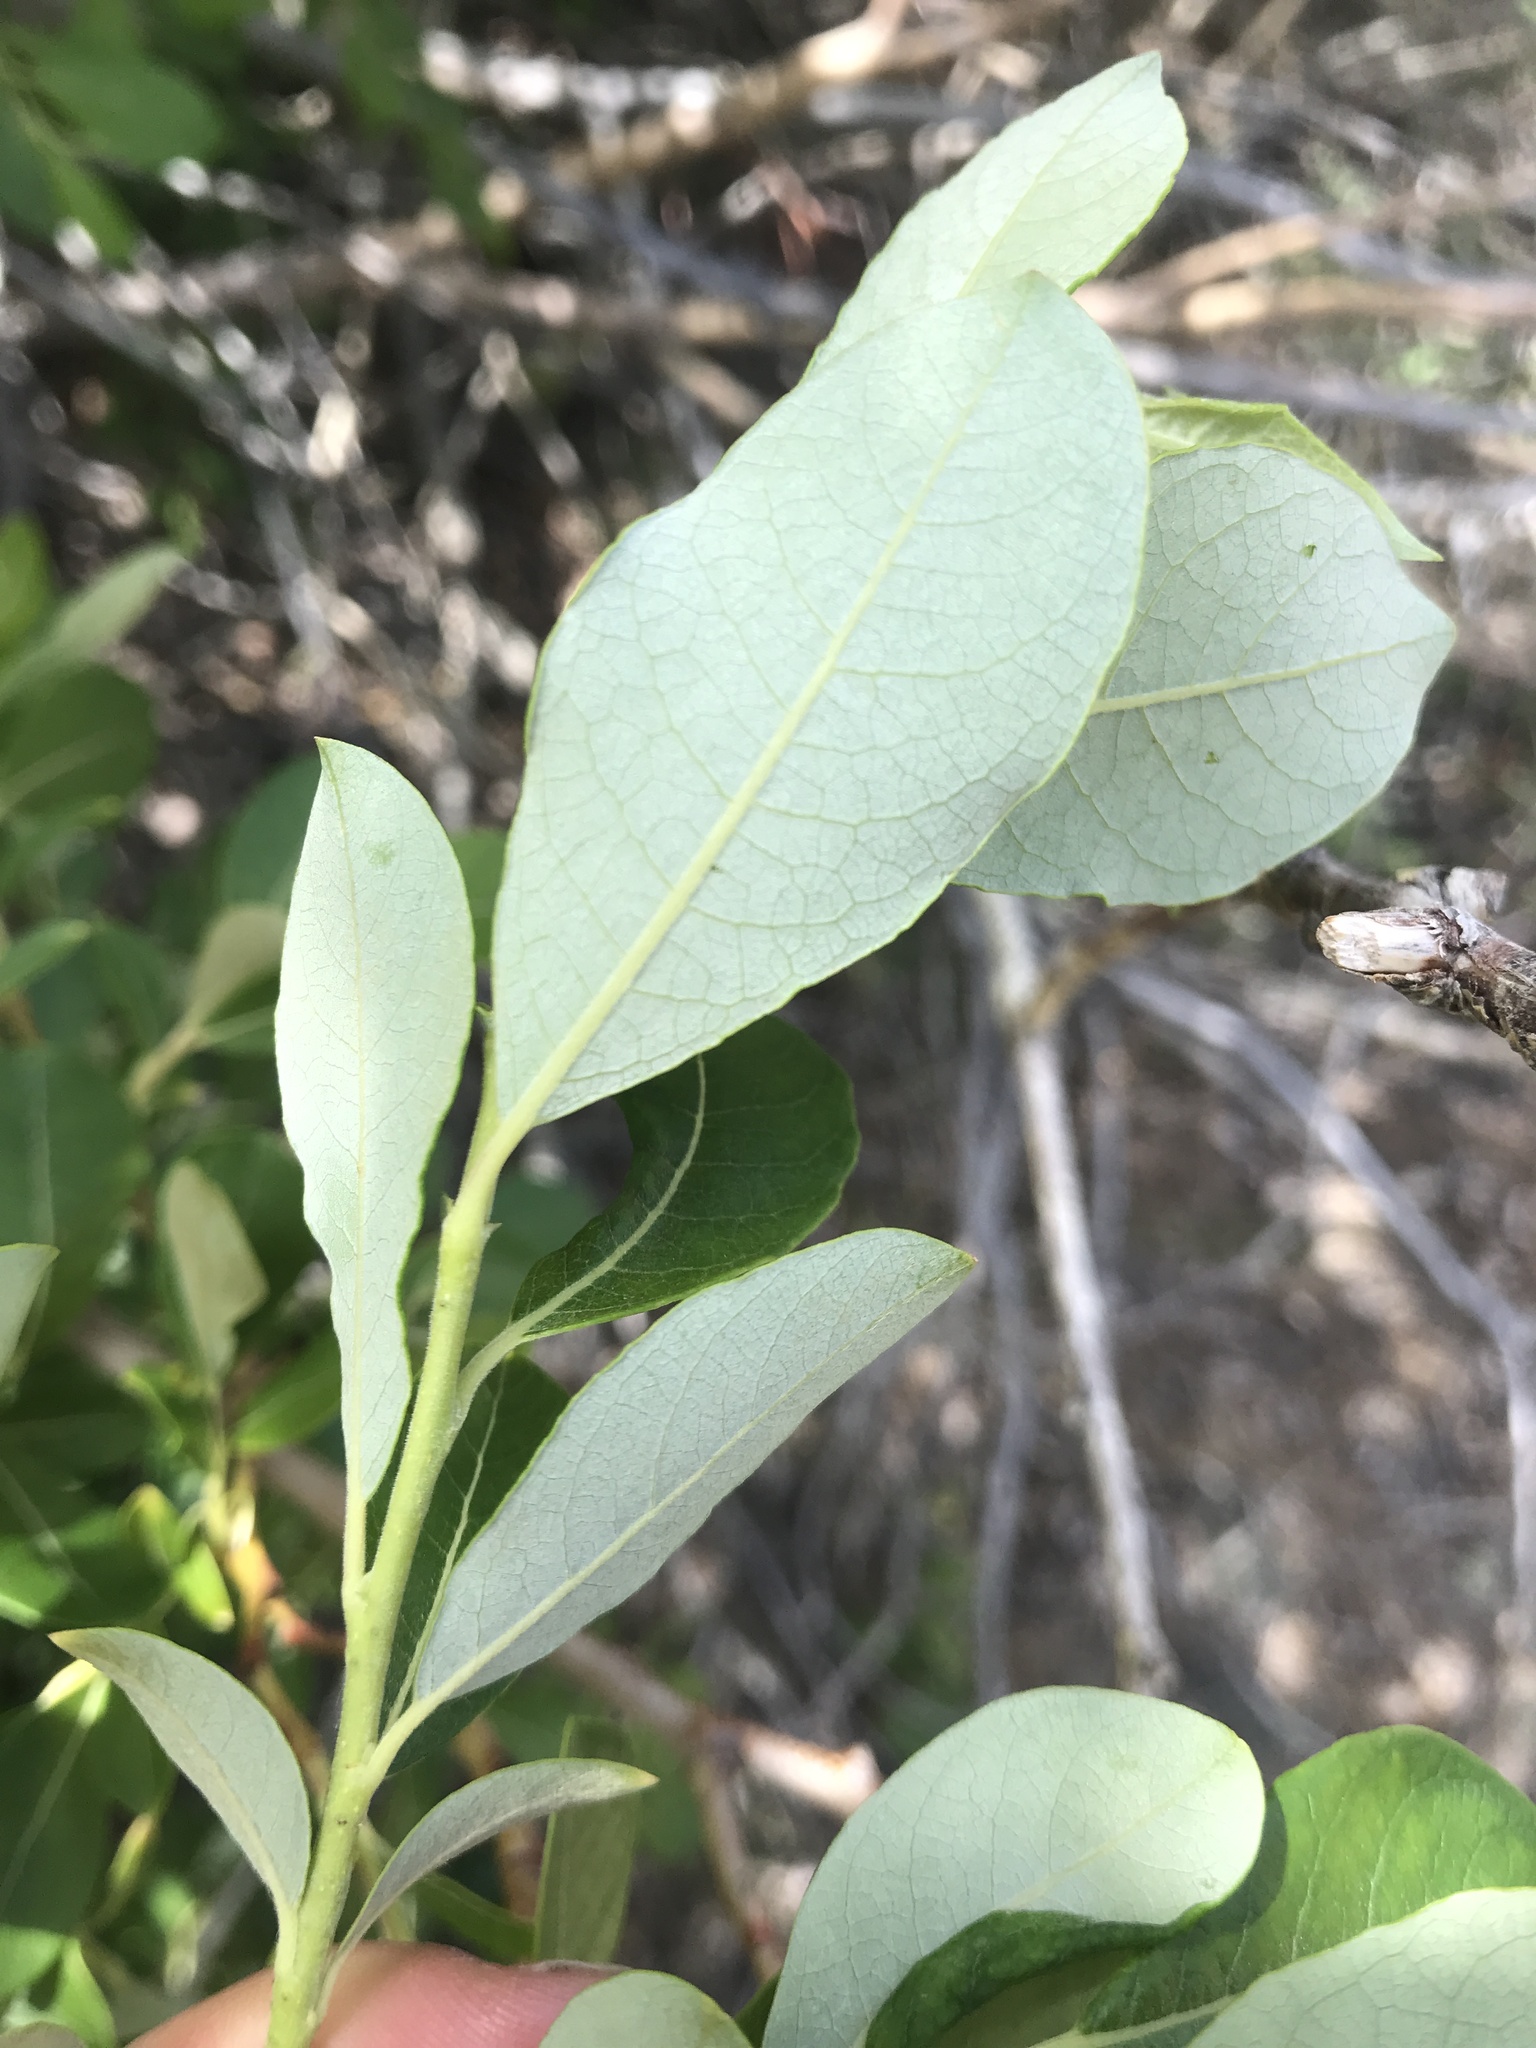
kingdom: Plantae
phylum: Tracheophyta
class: Magnoliopsida
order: Malpighiales
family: Salicaceae
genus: Salix
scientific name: Salix scouleriana
